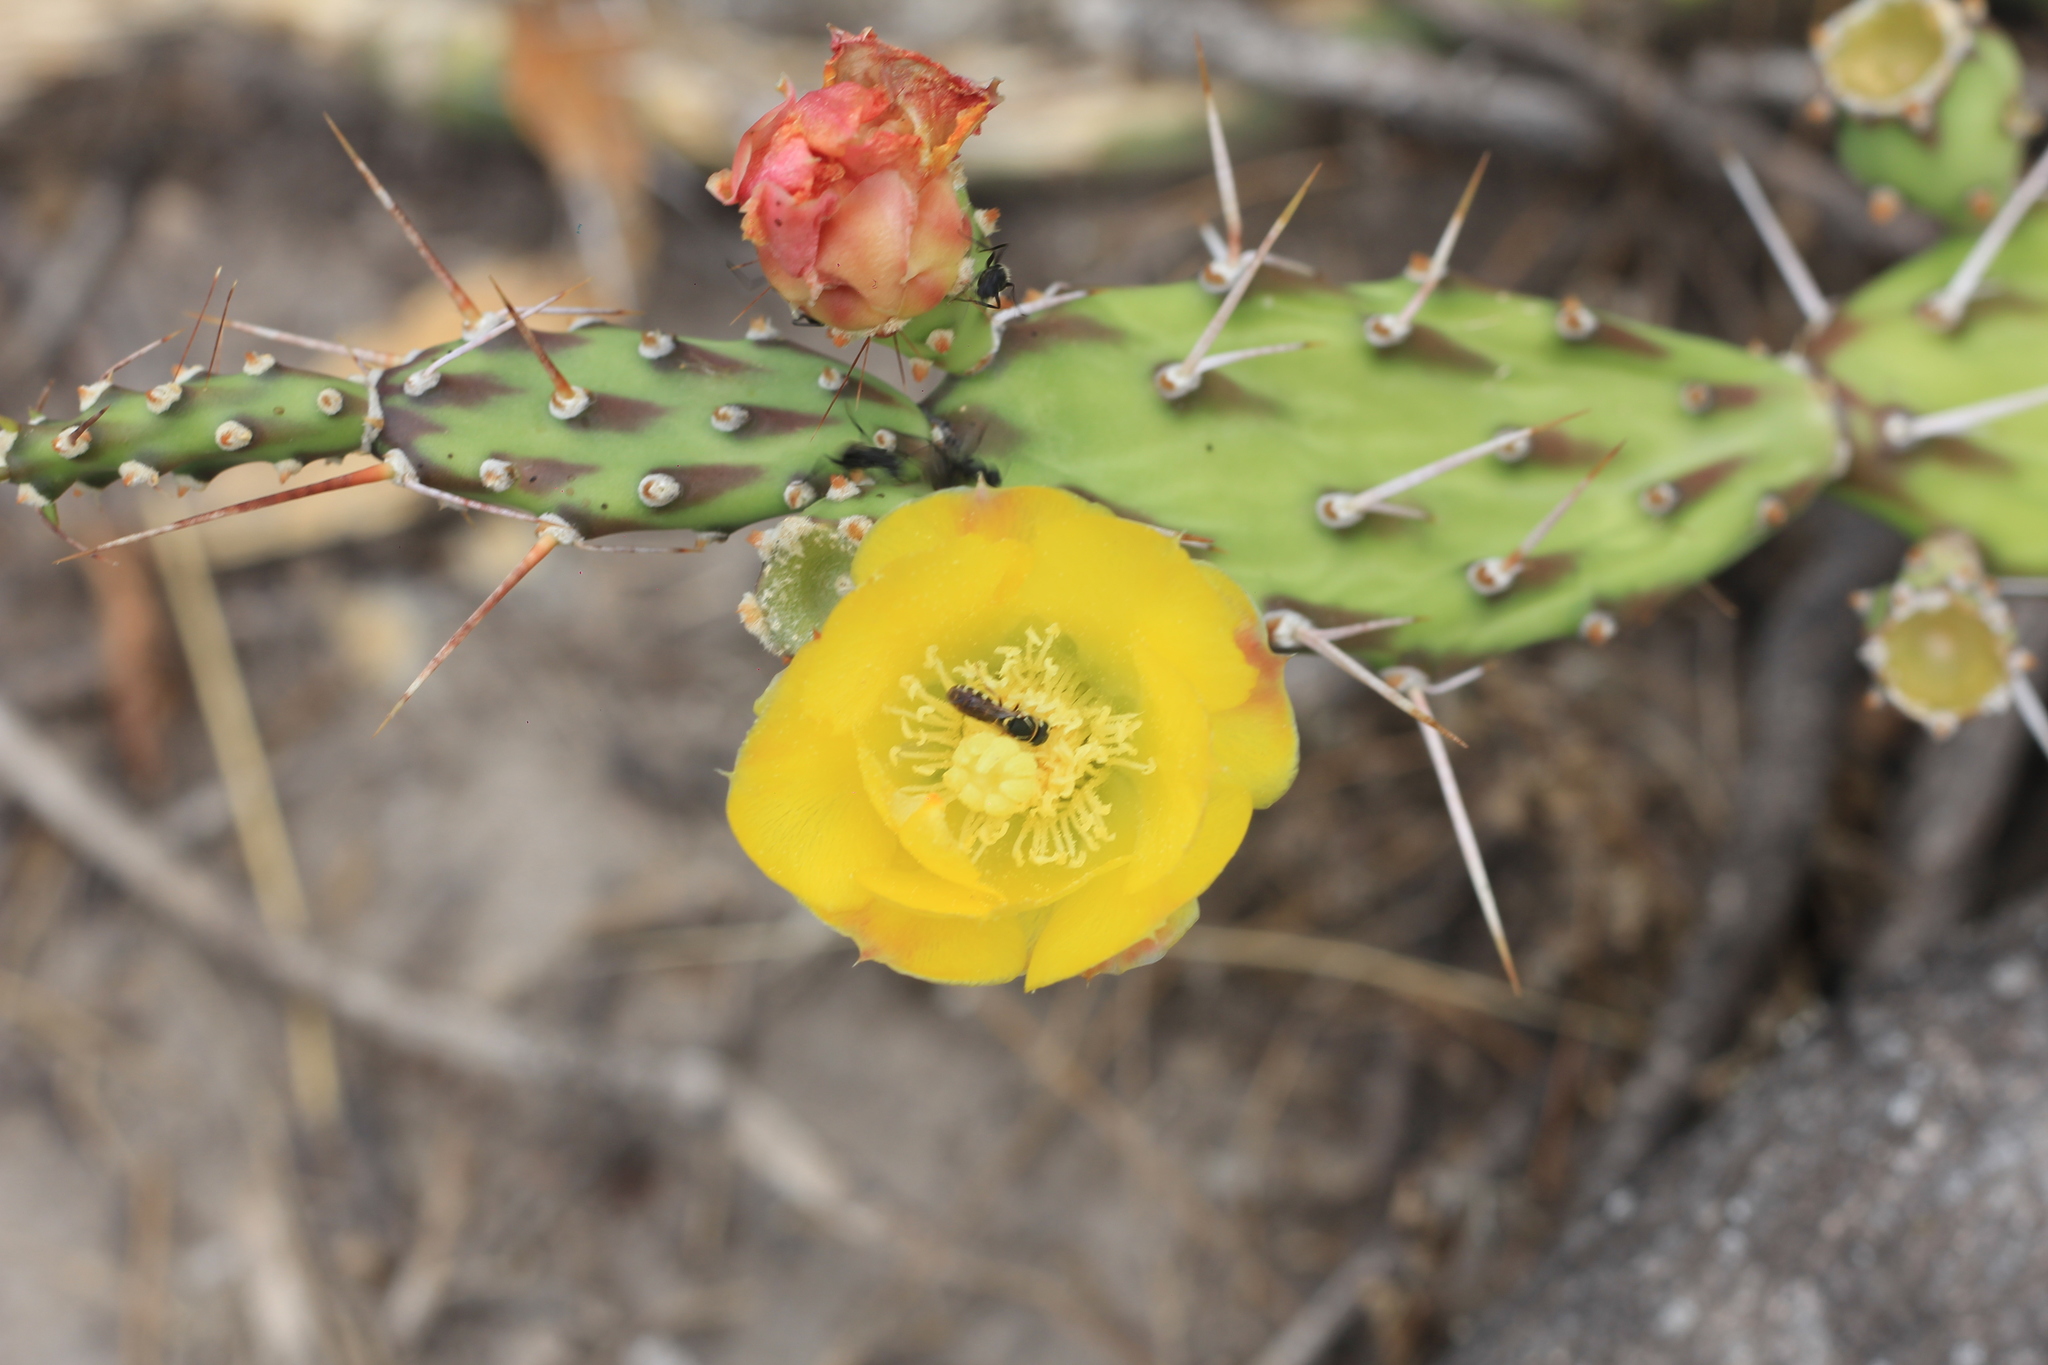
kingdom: Plantae
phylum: Tracheophyta
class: Magnoliopsida
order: Caryophyllales
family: Cactaceae
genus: Opuntia
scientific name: Opuntia anacantha
